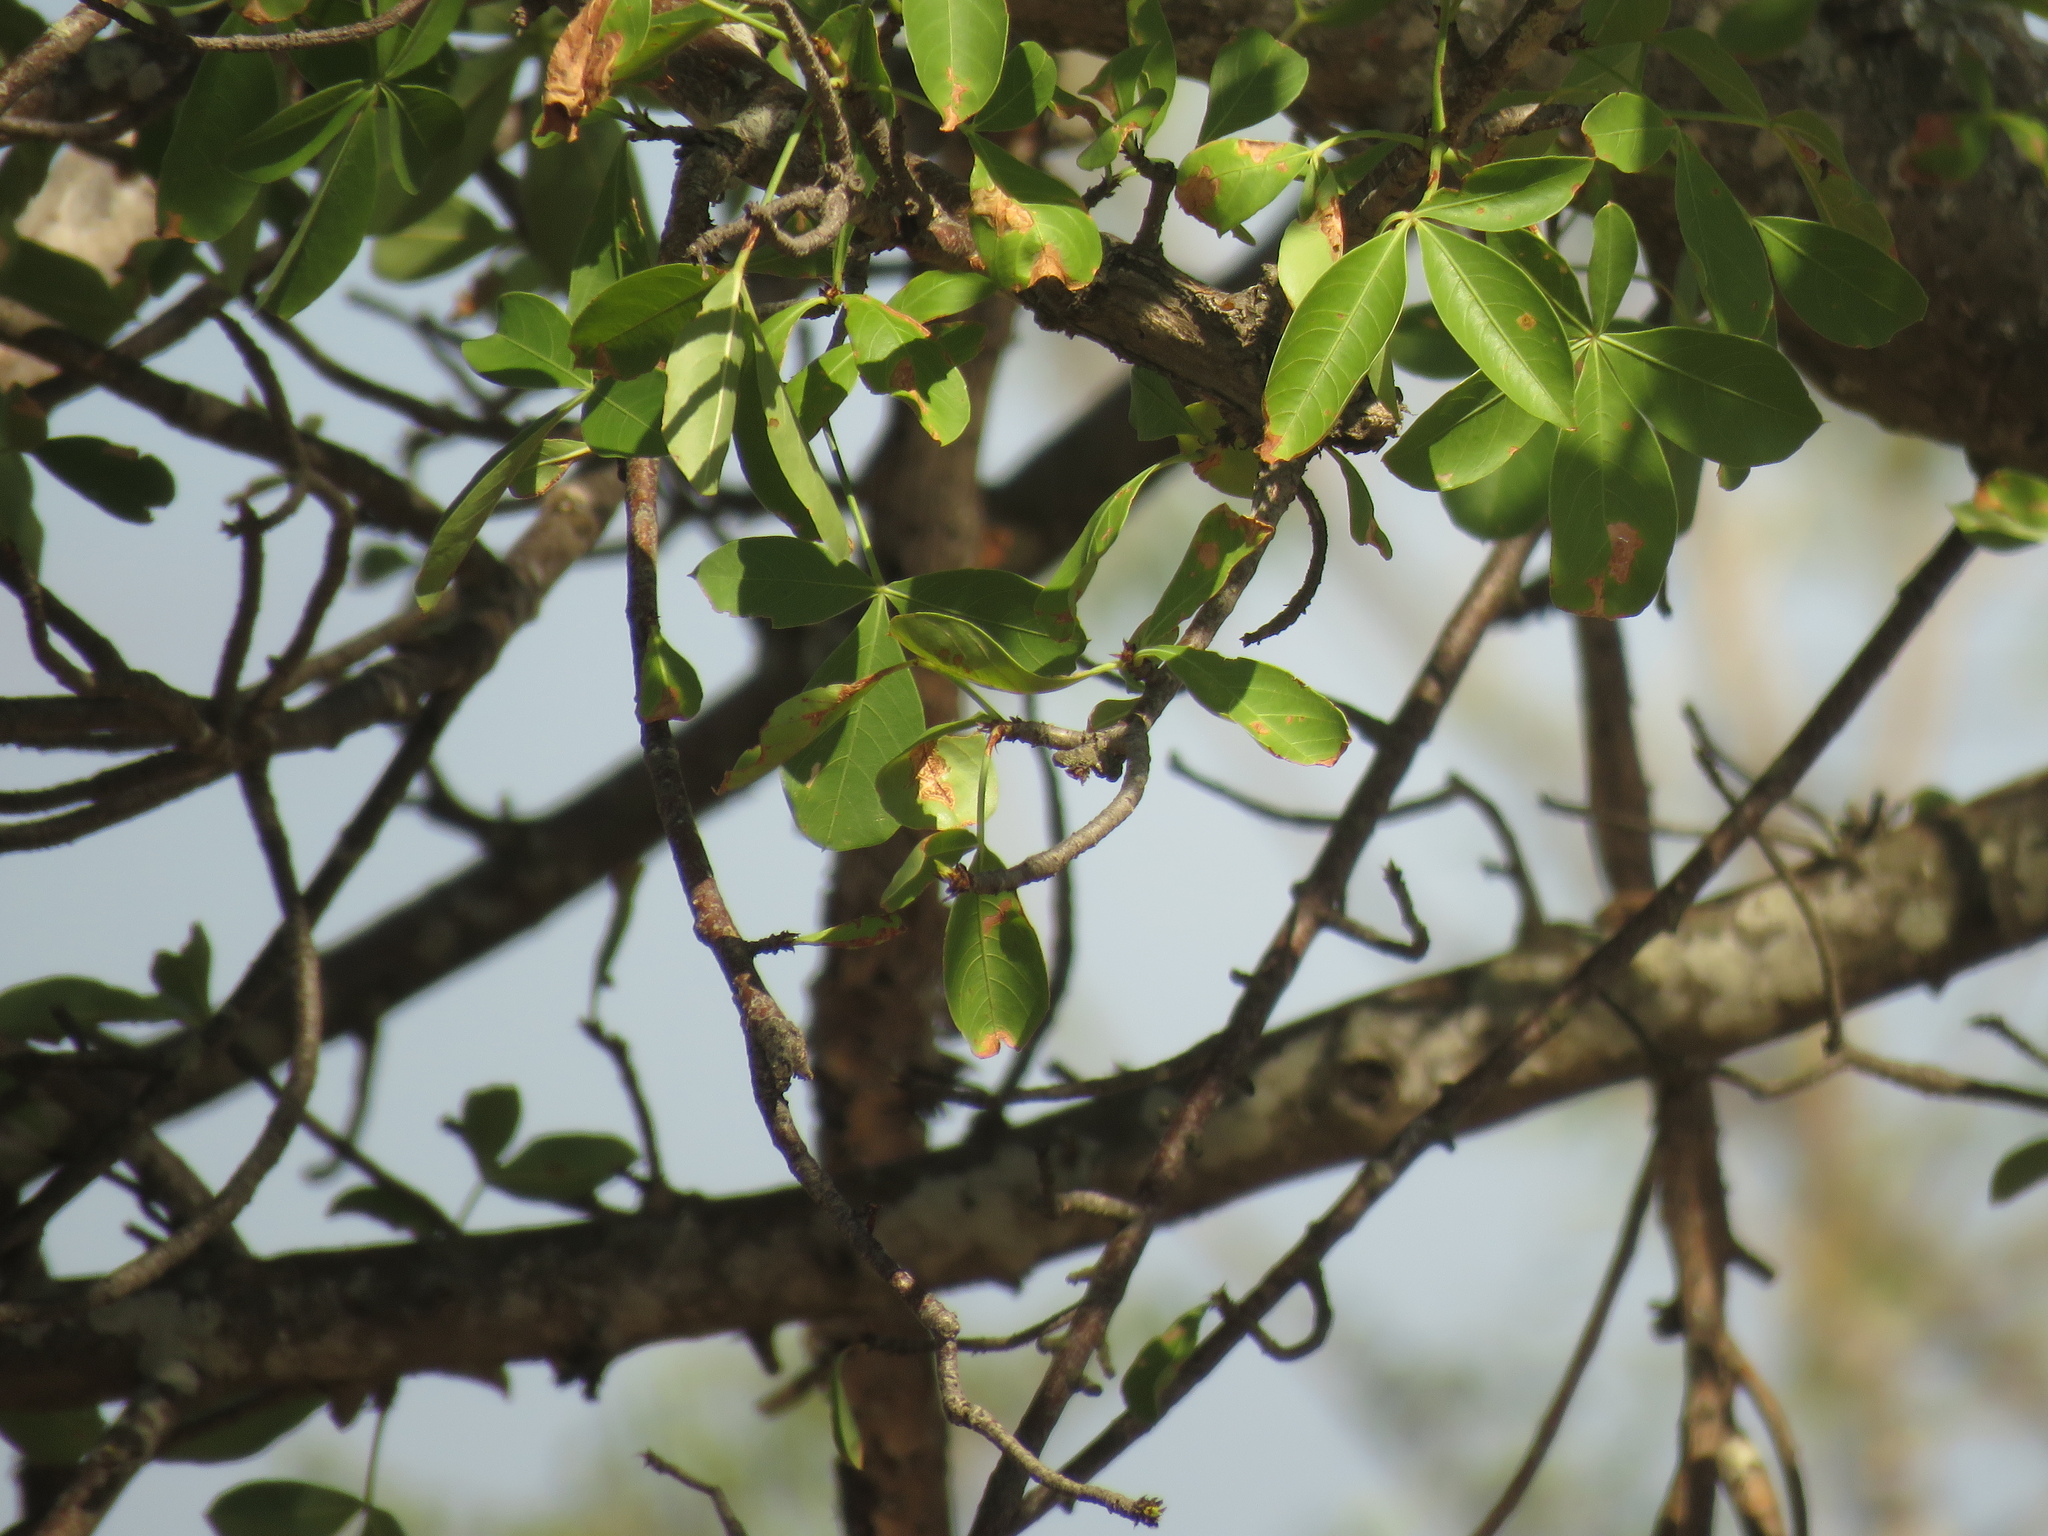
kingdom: Plantae
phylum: Tracheophyta
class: Magnoliopsida
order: Malvales
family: Malvaceae
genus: Adansonia
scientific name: Adansonia digitata
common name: Dead-rat-tree
